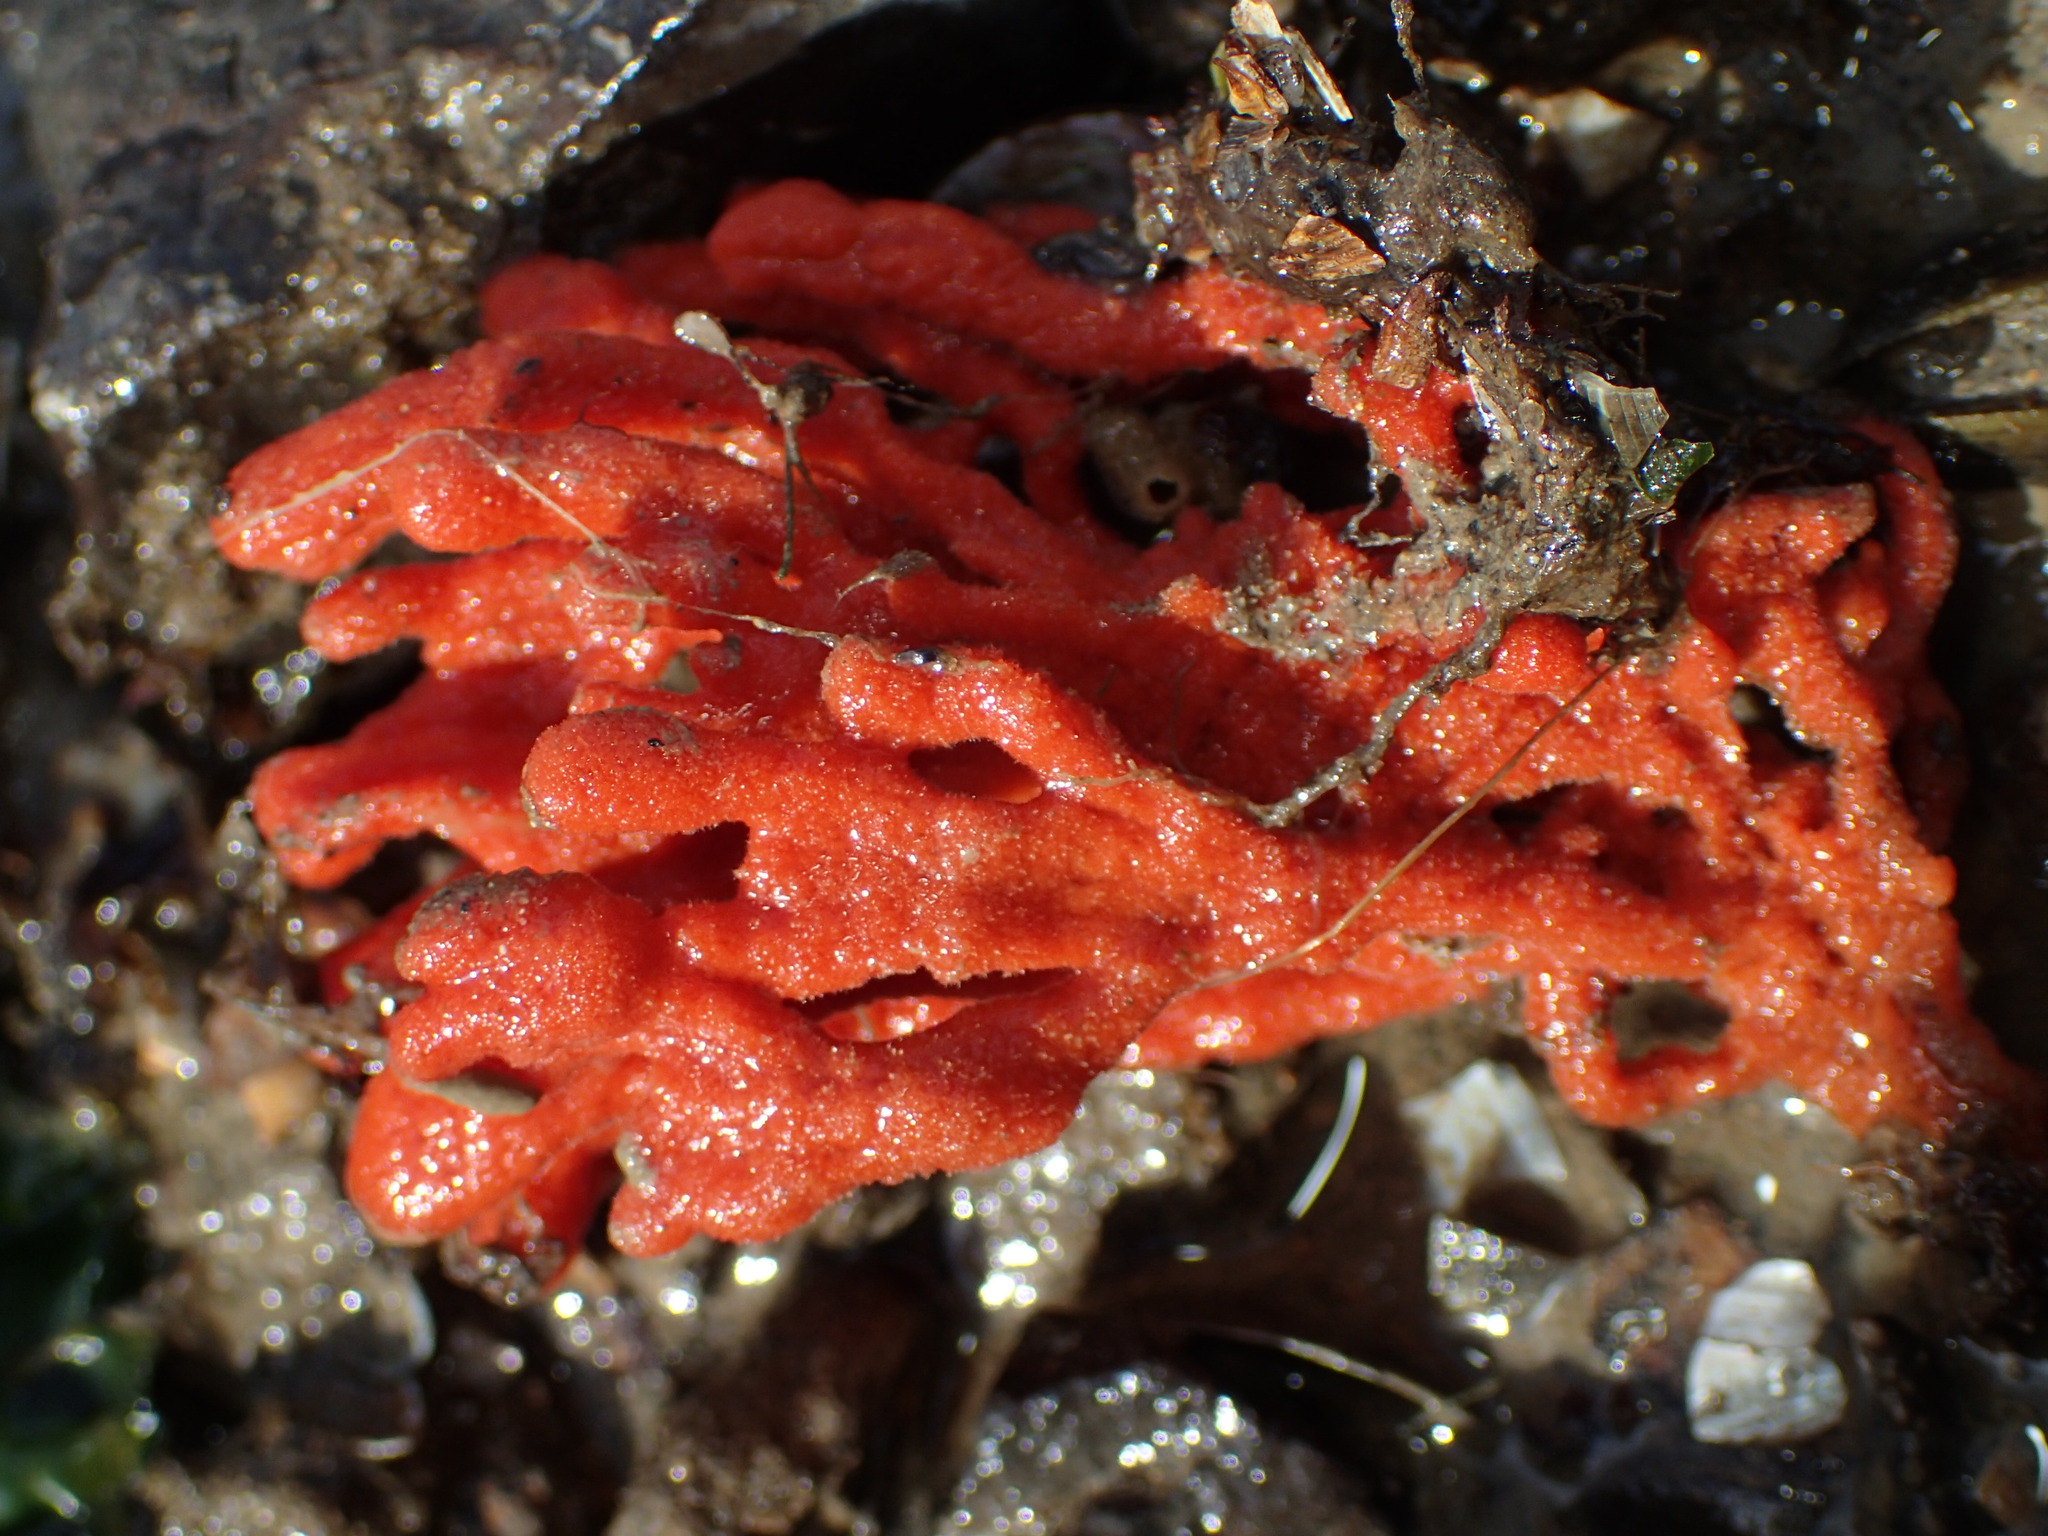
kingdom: Animalia
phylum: Porifera
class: Demospongiae
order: Poecilosclerida
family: Microcionidae
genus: Clathria
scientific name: Clathria prolifera
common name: Red beard sponge
